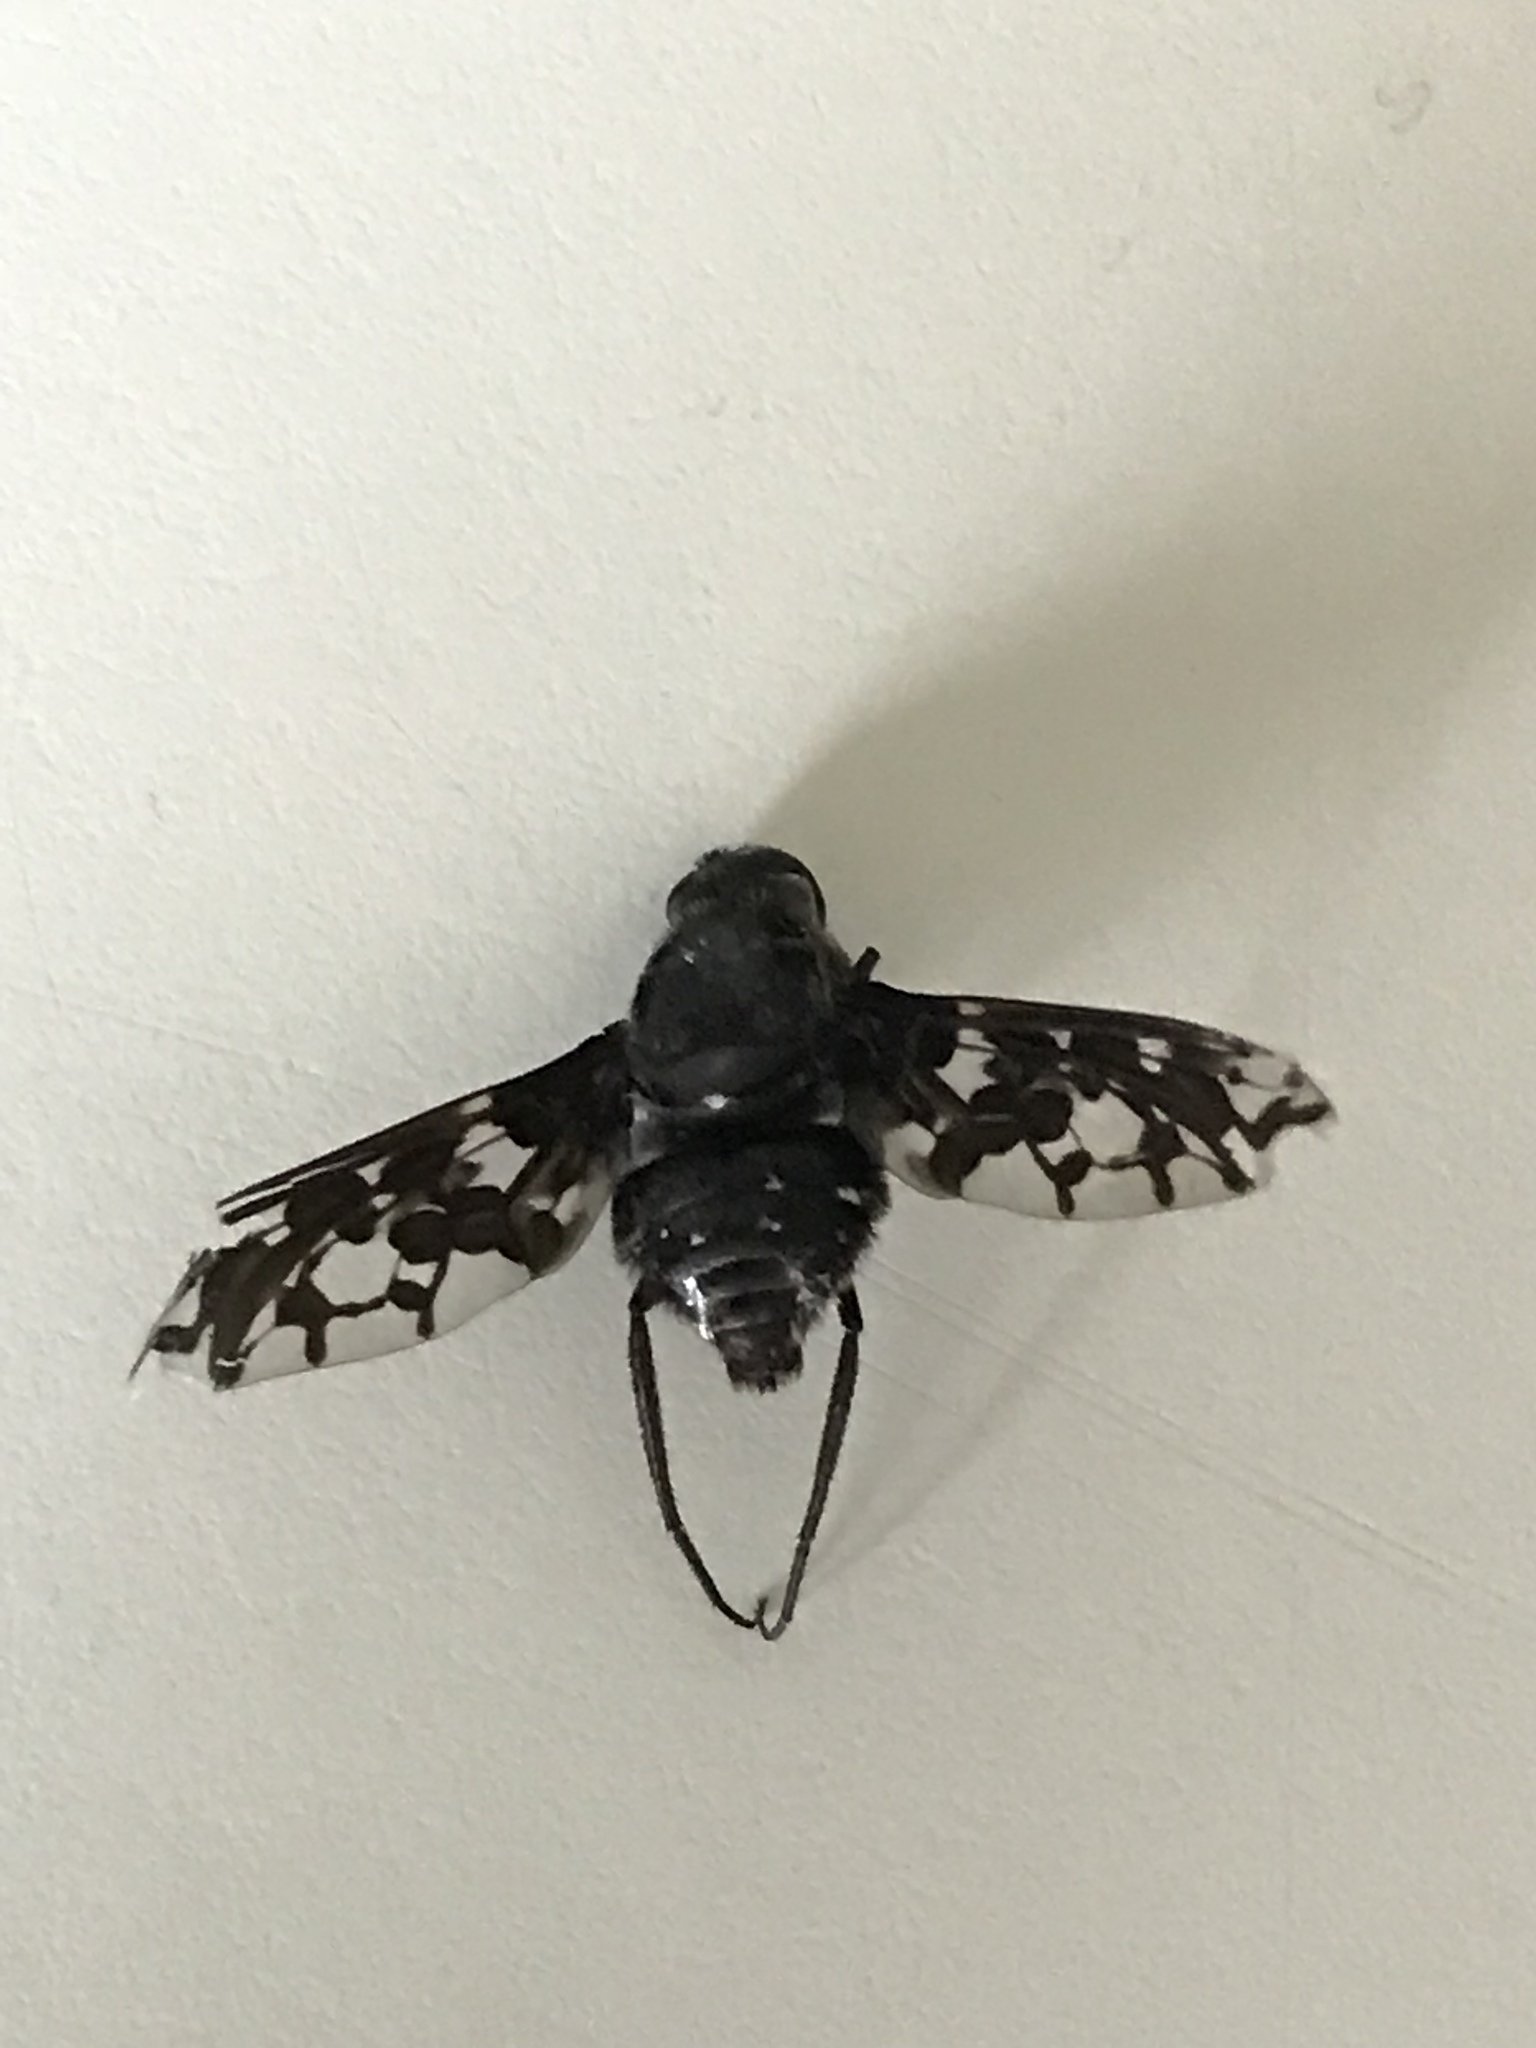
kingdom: Animalia
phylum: Arthropoda
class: Insecta
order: Diptera
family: Bombyliidae
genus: Xenox
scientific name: Xenox tigrinus
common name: Tiger bee fly
